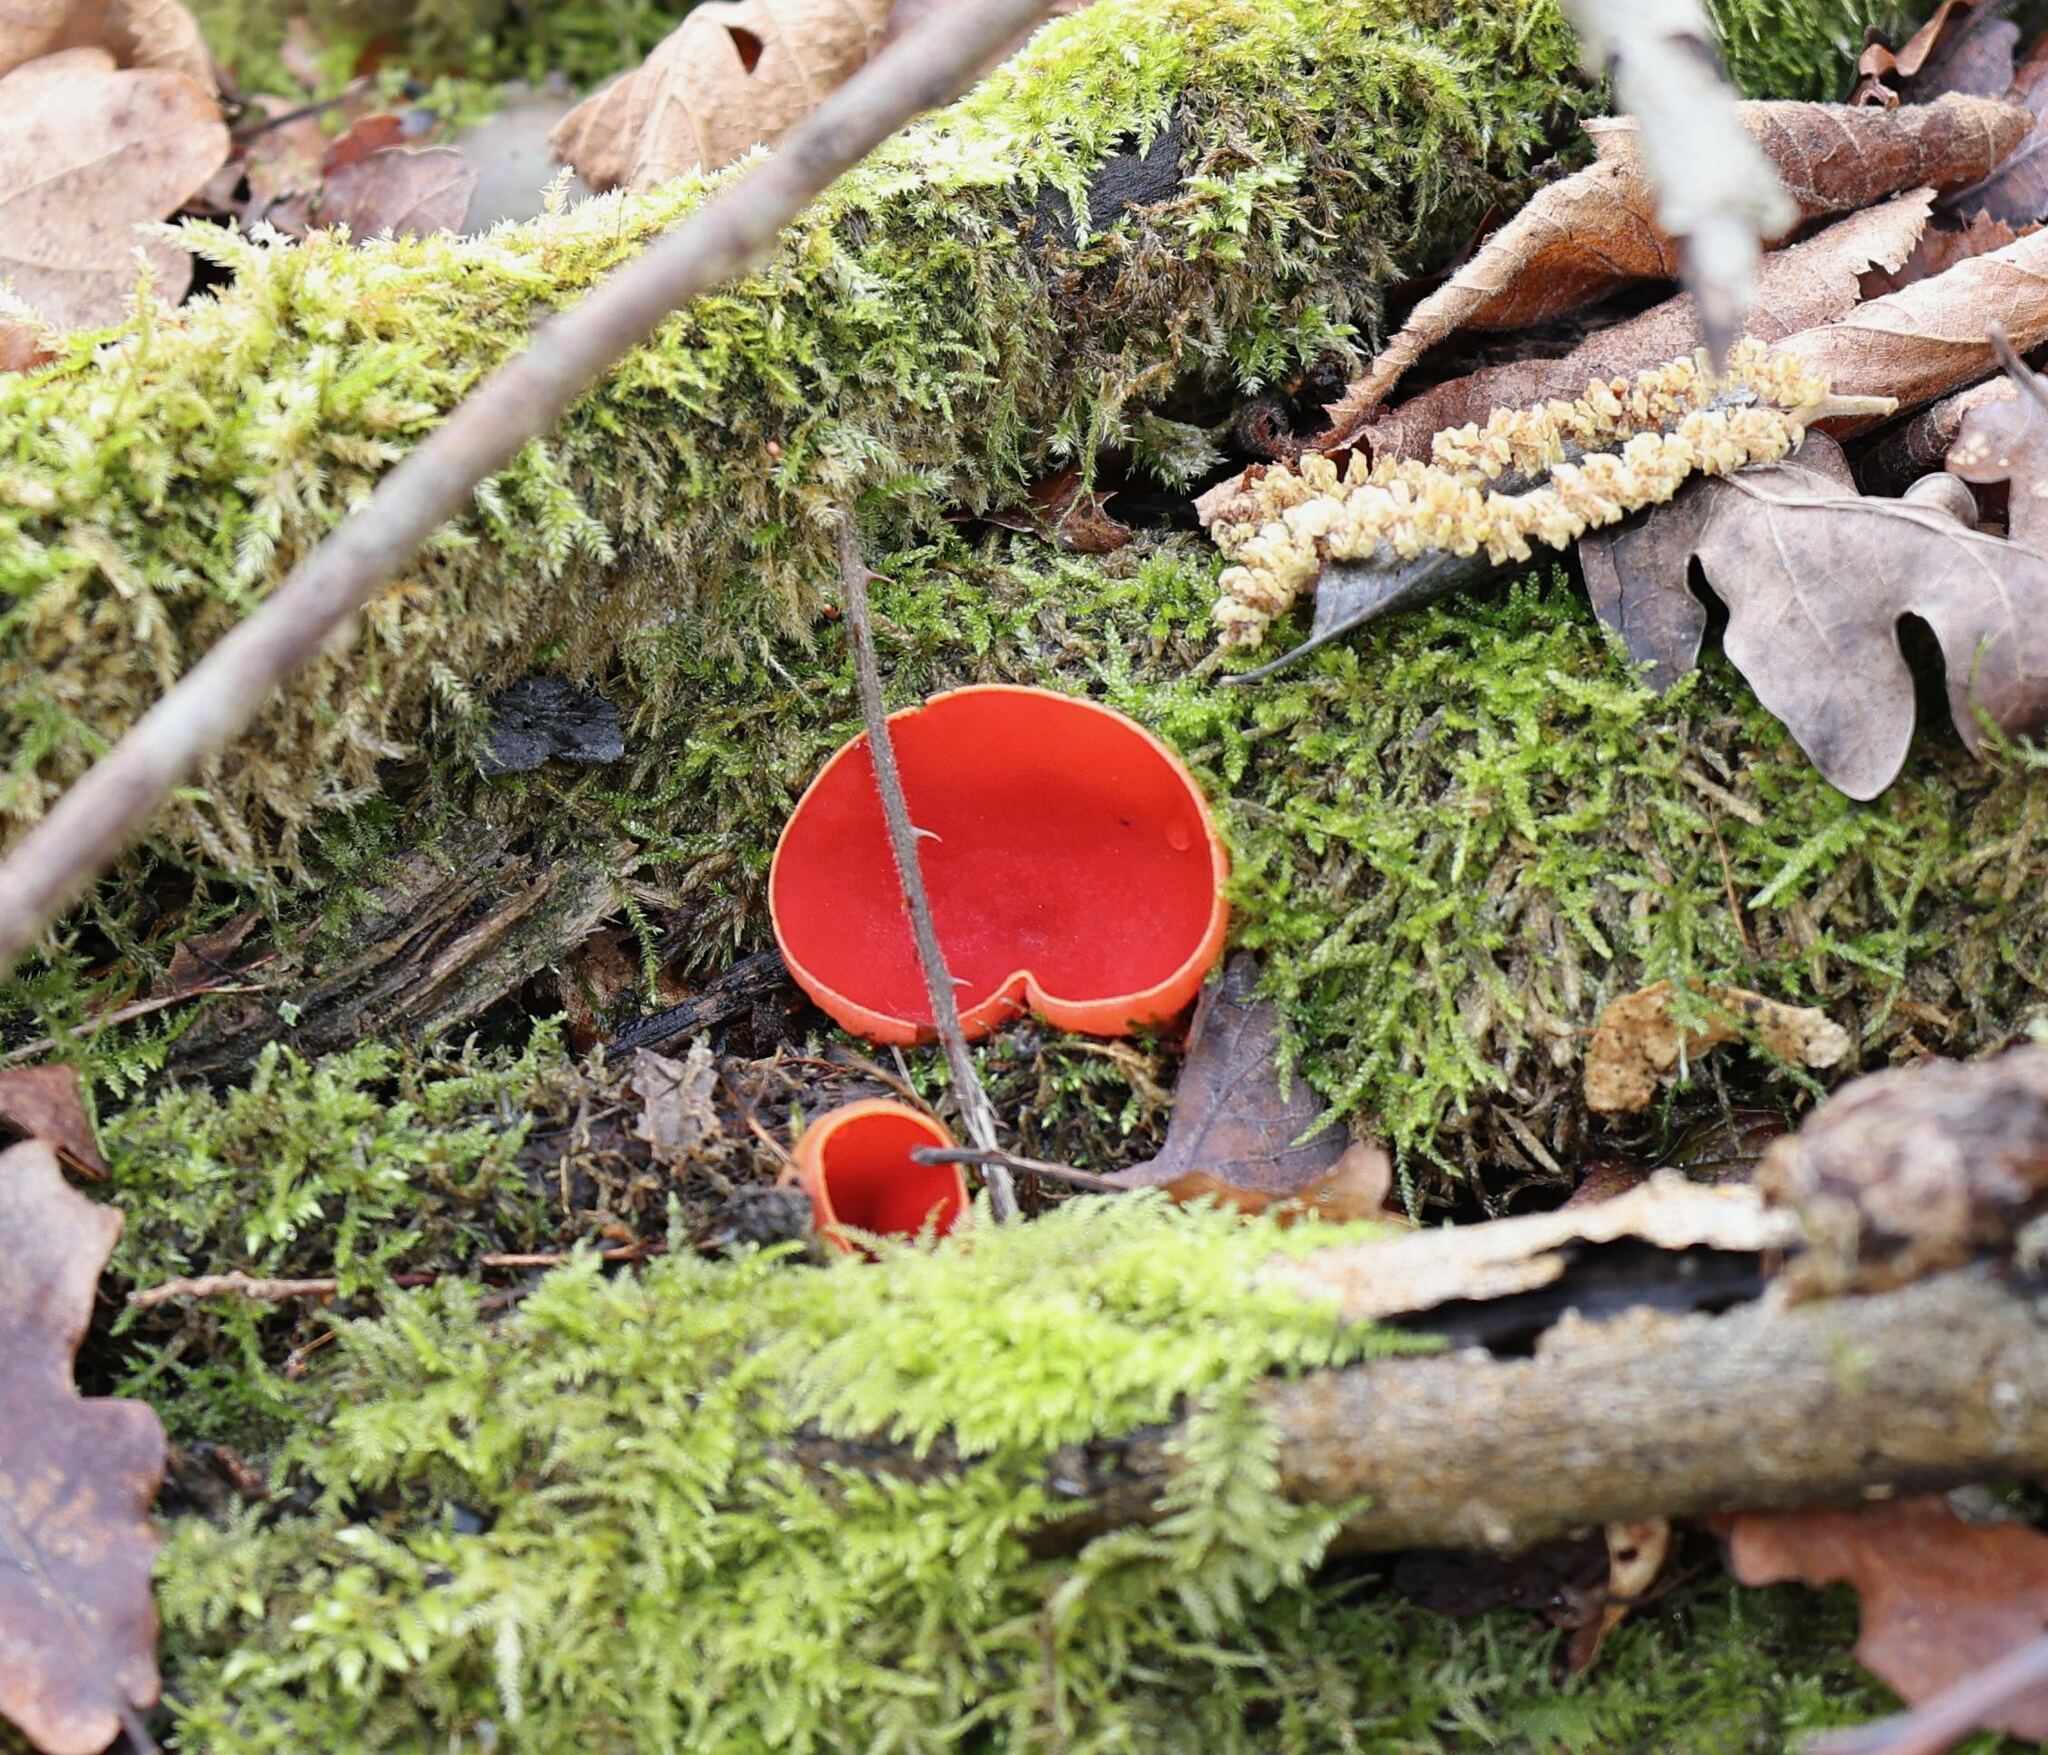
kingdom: Fungi
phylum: Ascomycota
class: Pezizomycetes
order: Pezizales
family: Sarcoscyphaceae
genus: Sarcoscypha
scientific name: Sarcoscypha
